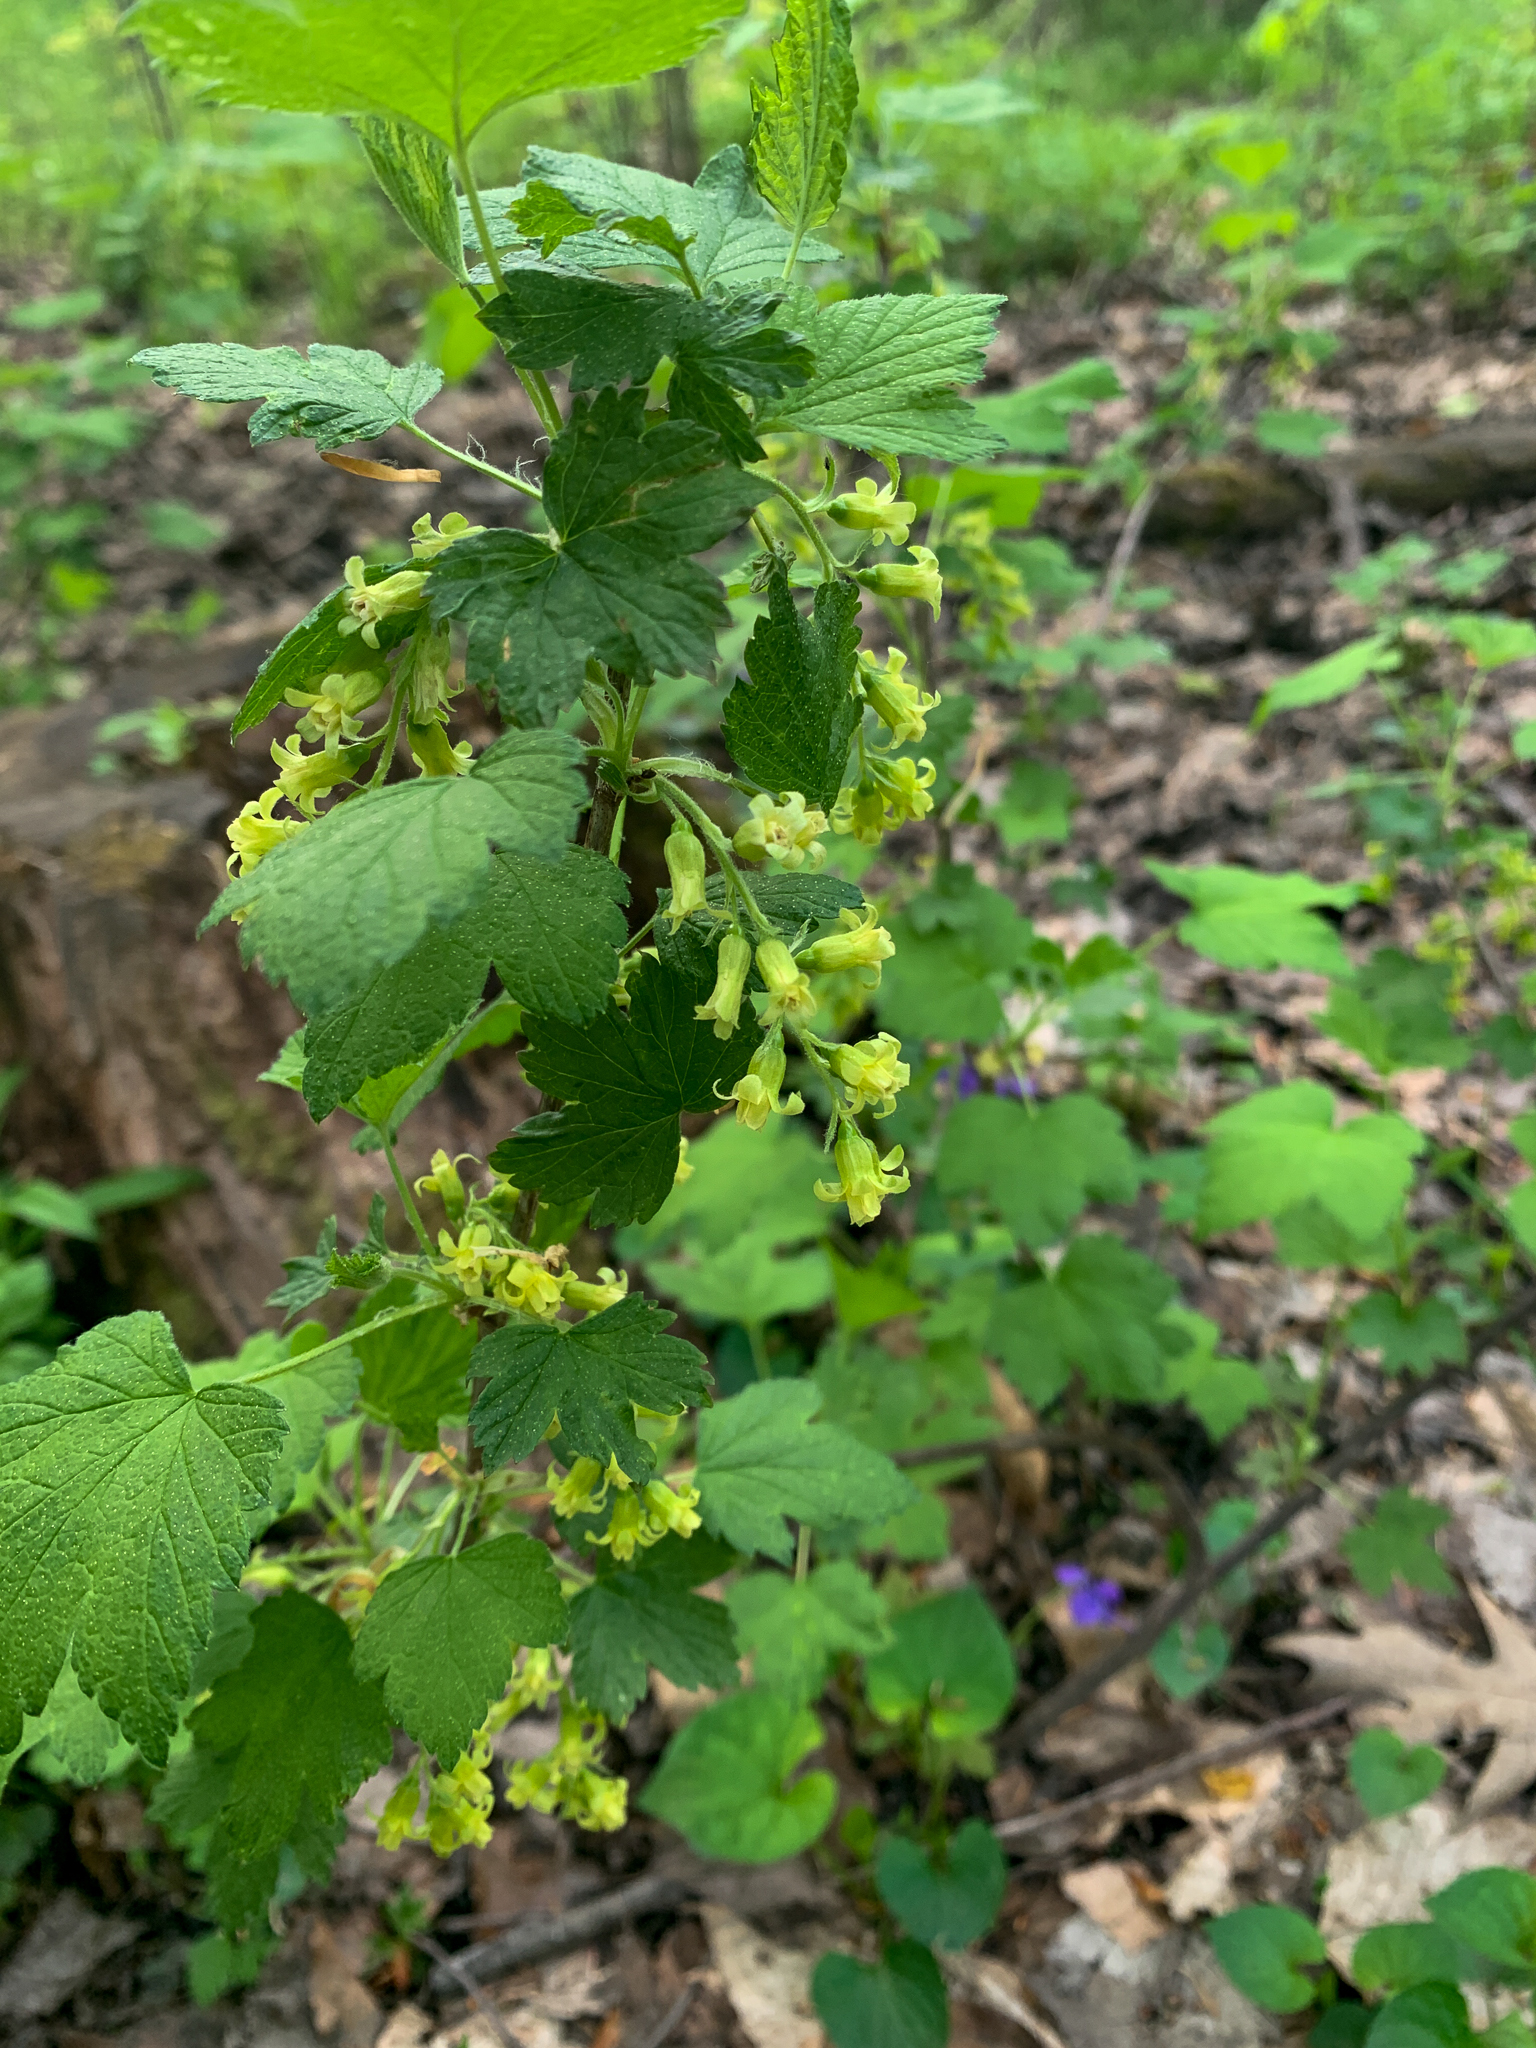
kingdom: Plantae
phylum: Tracheophyta
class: Magnoliopsida
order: Saxifragales
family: Grossulariaceae
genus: Ribes
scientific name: Ribes americanum
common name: American black currant
